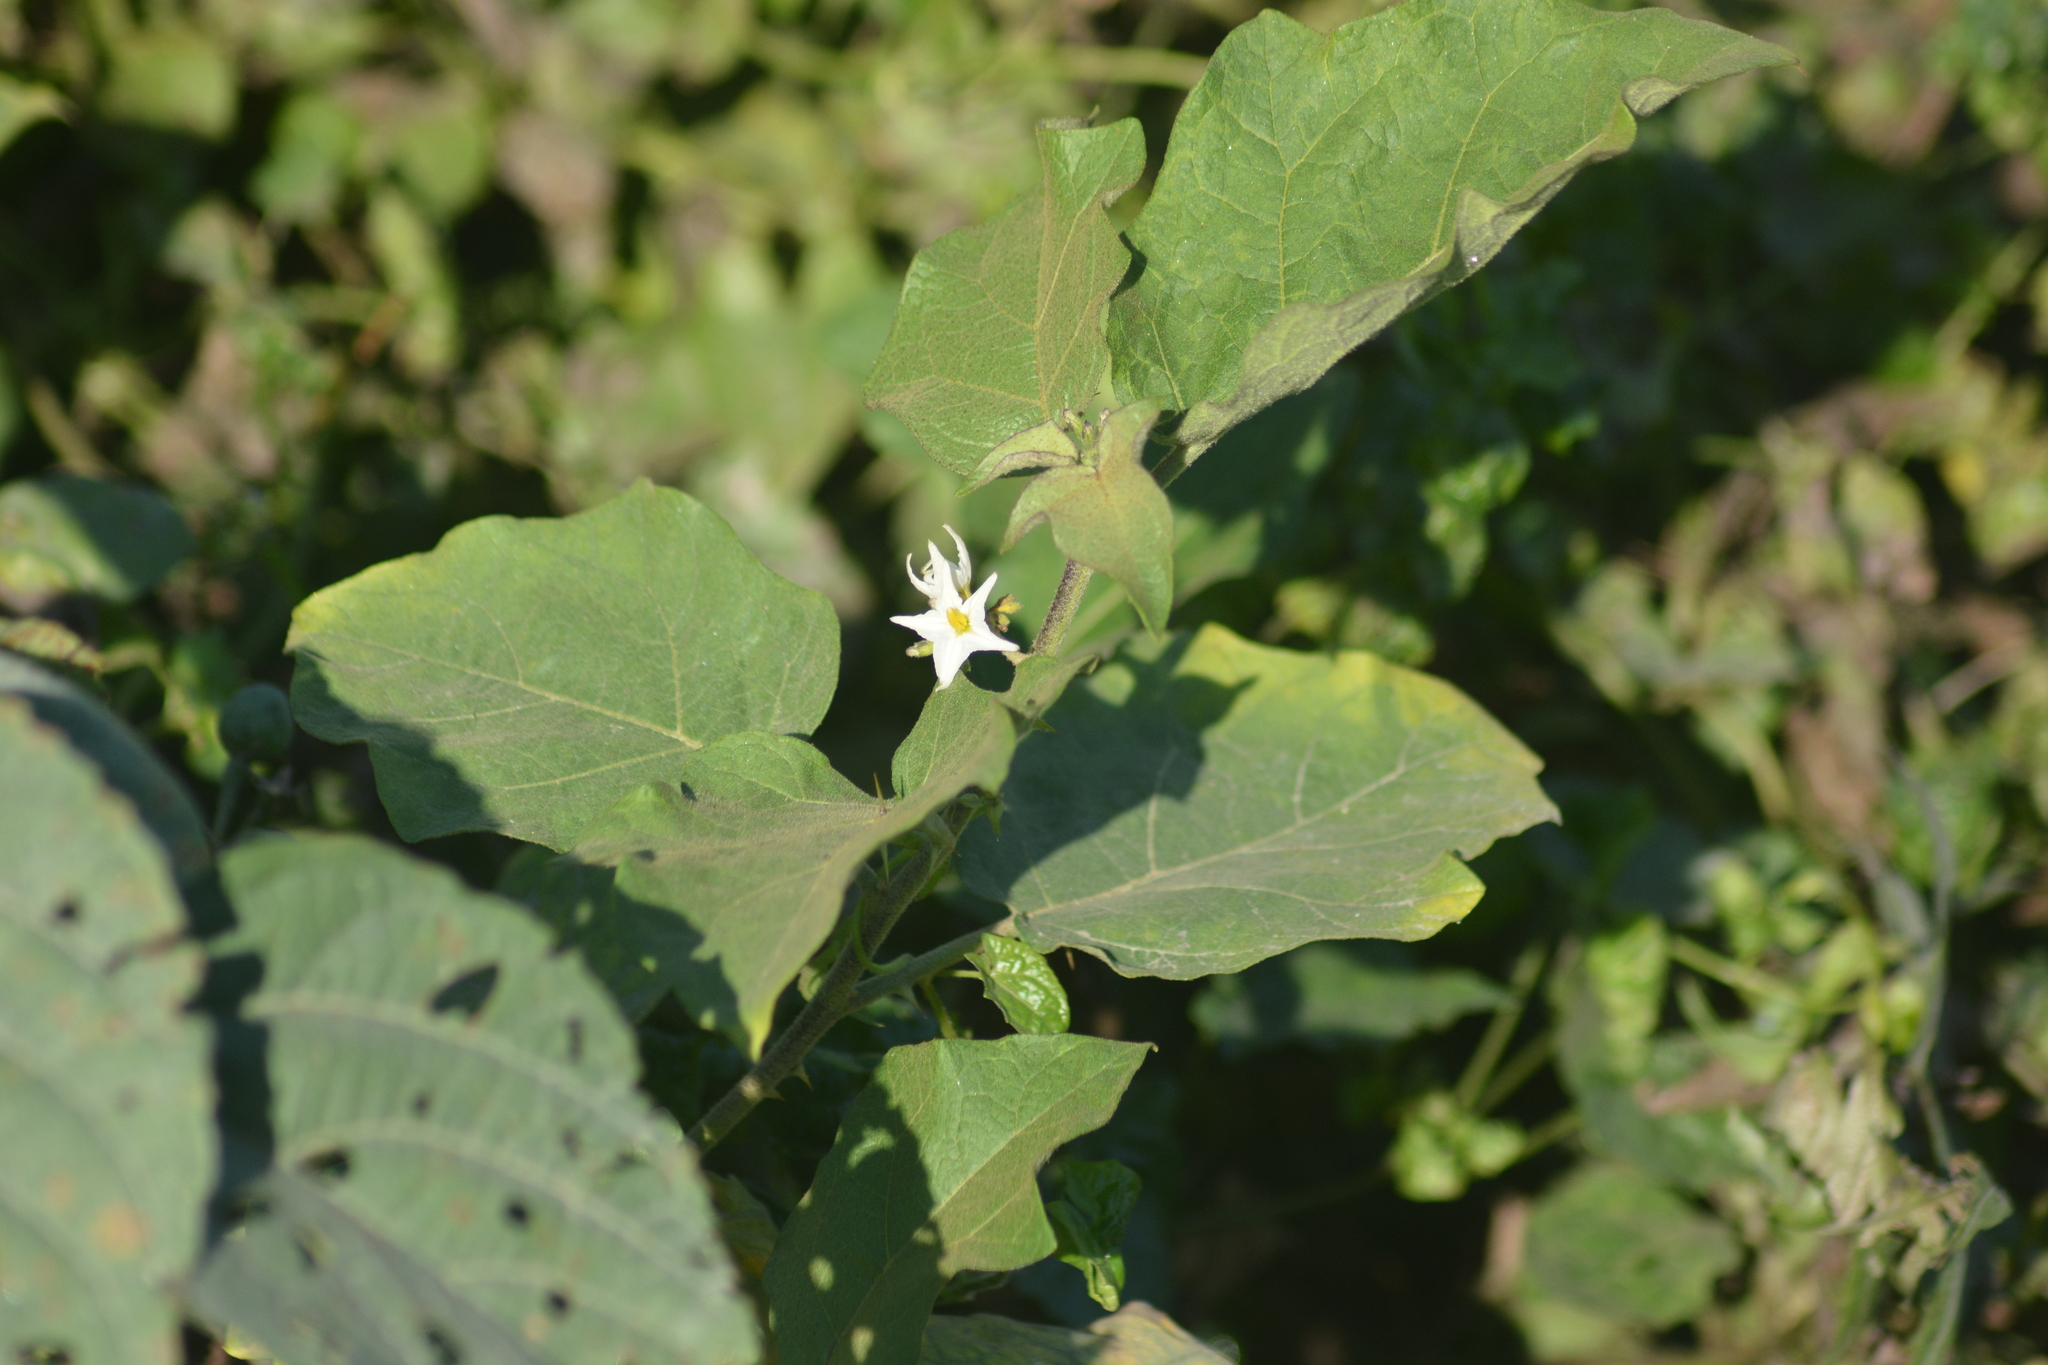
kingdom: Plantae
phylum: Tracheophyta
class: Magnoliopsida
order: Solanales
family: Solanaceae
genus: Solanum
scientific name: Solanum torvum
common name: Turkey berry
